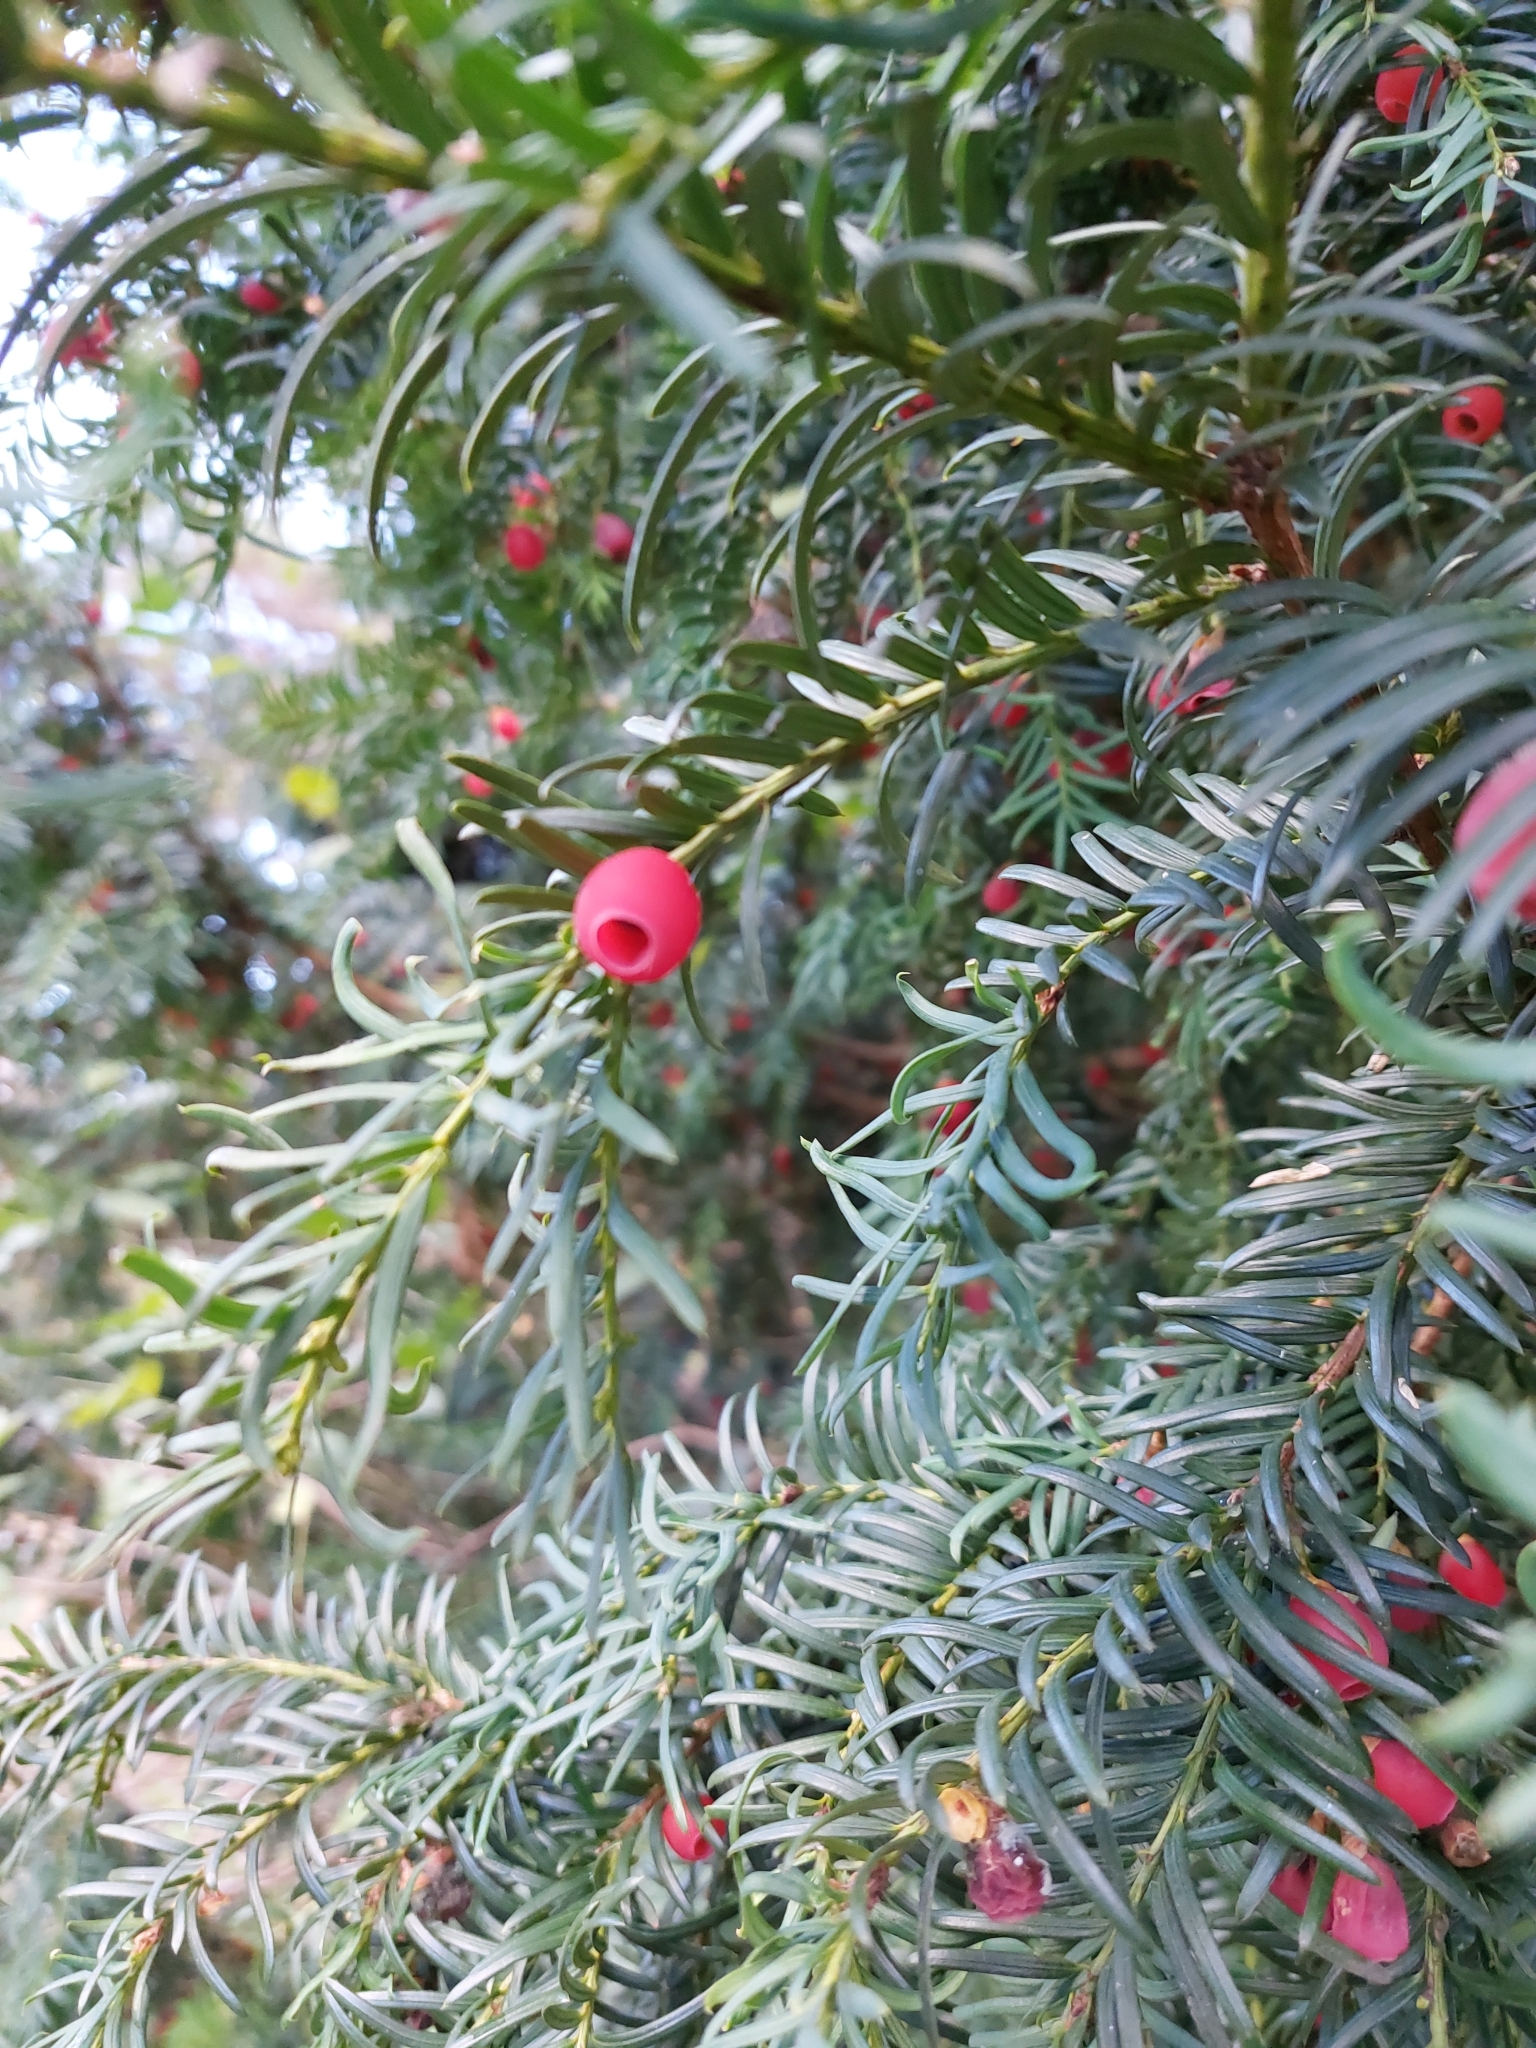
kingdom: Plantae
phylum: Tracheophyta
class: Pinopsida
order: Pinales
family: Taxaceae
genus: Taxus
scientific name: Taxus baccata
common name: Yew
